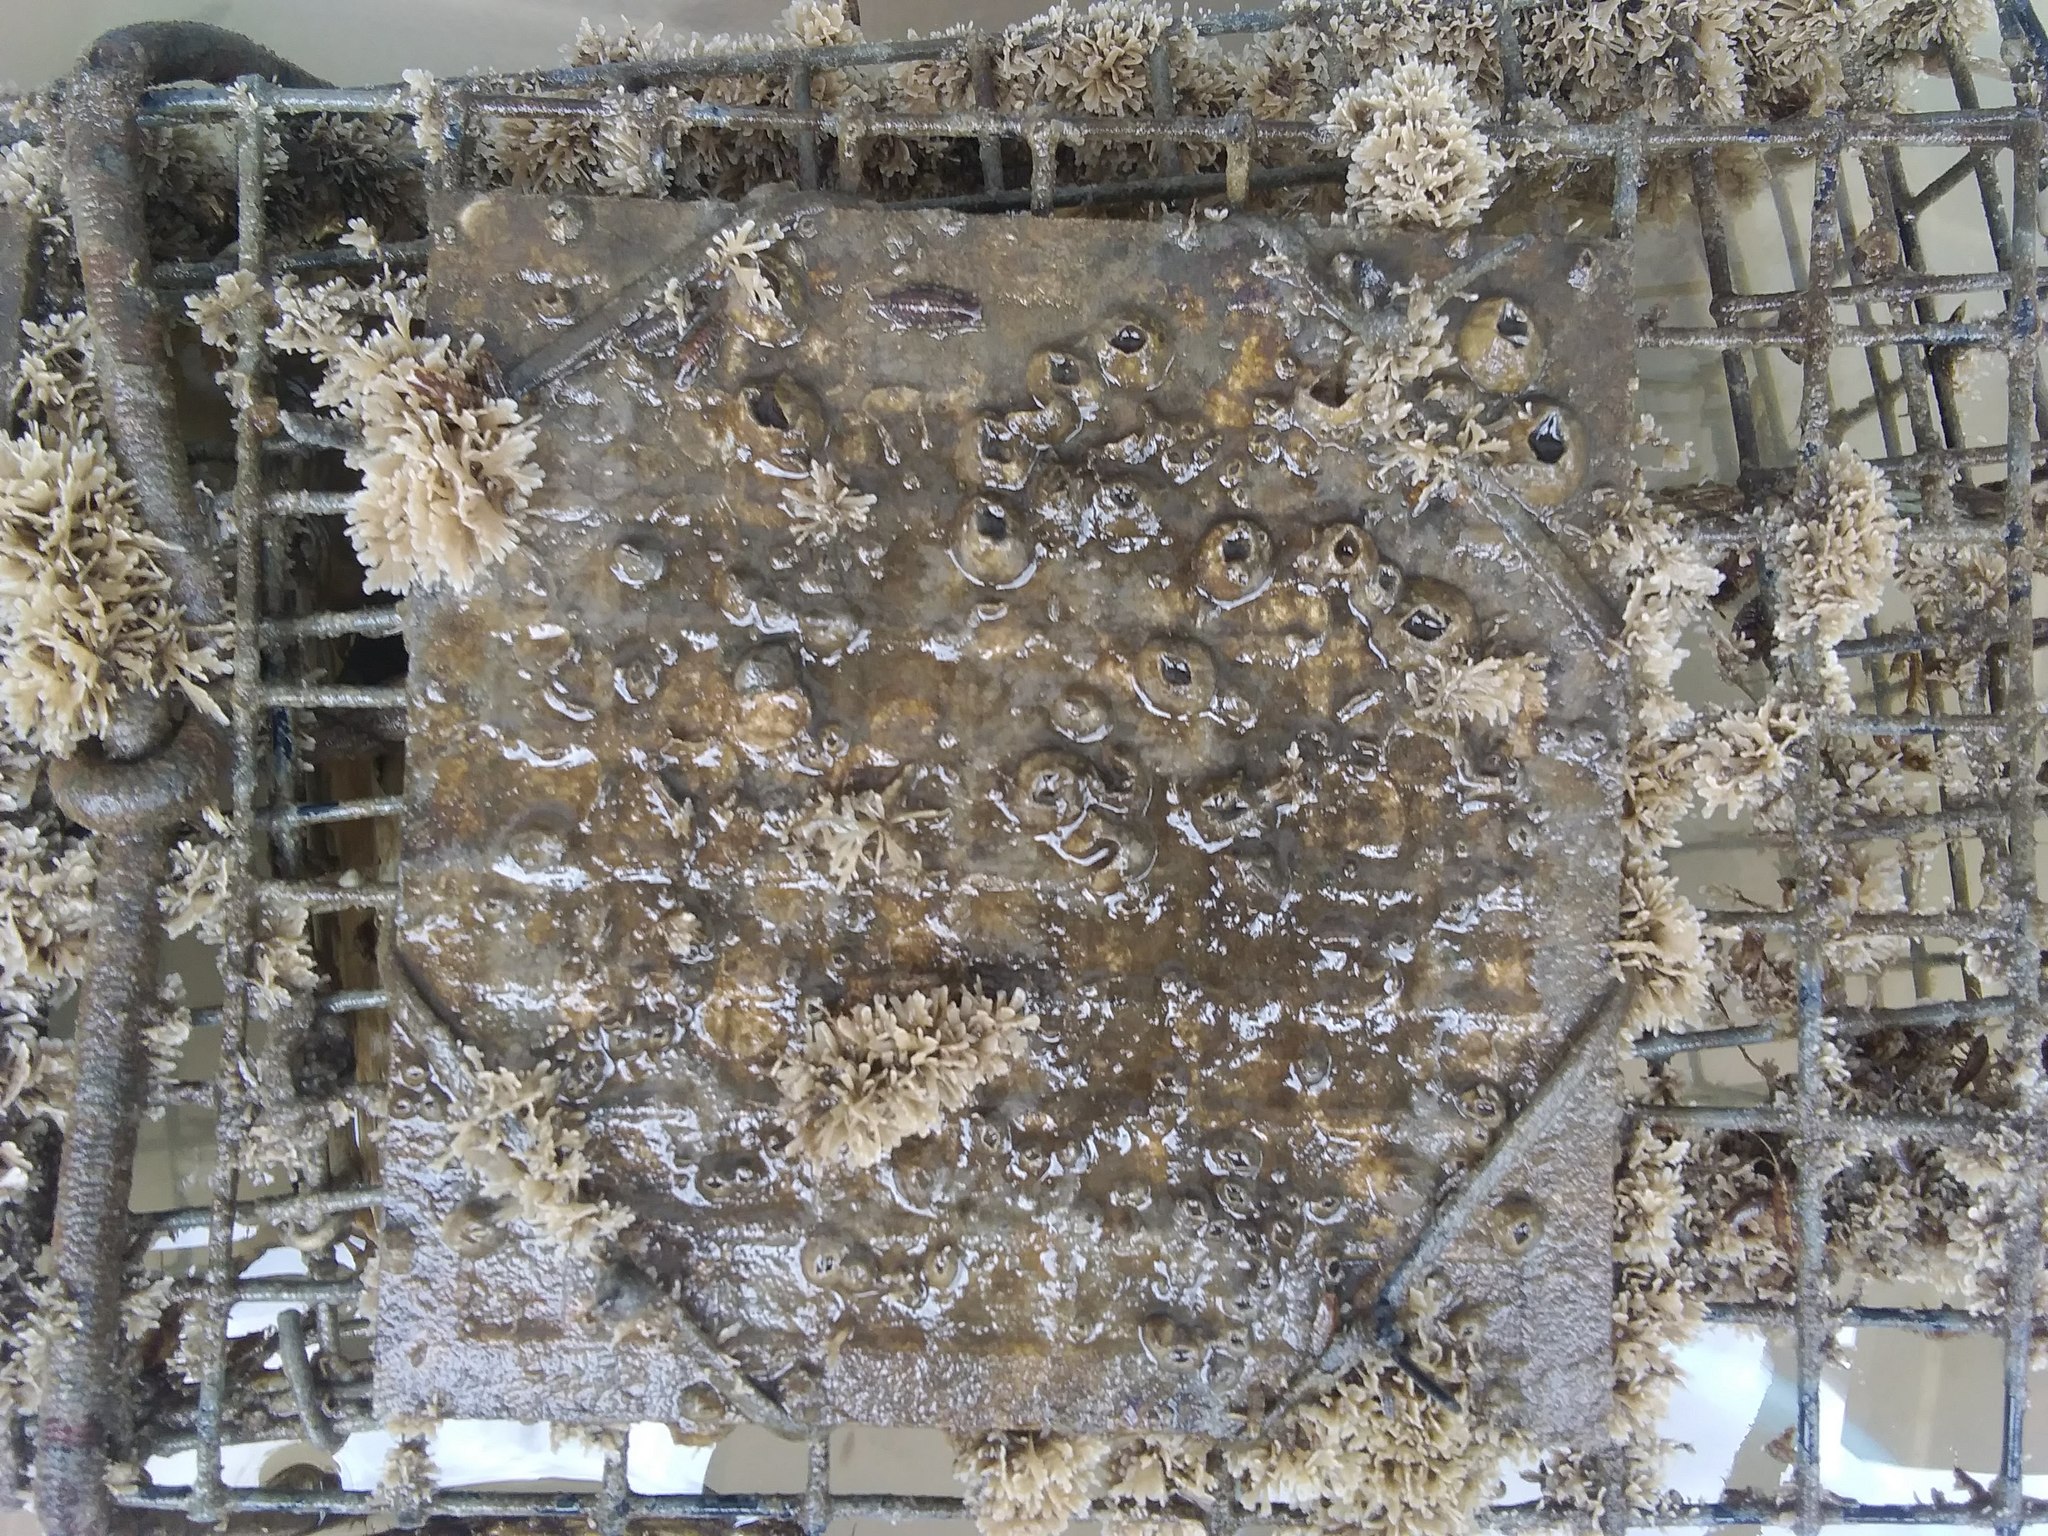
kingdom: Animalia
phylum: Arthropoda
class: Maxillopoda
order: Sessilia
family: Balanidae
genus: Amphibalanus
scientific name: Amphibalanus improvisus
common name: Bay barnacle
